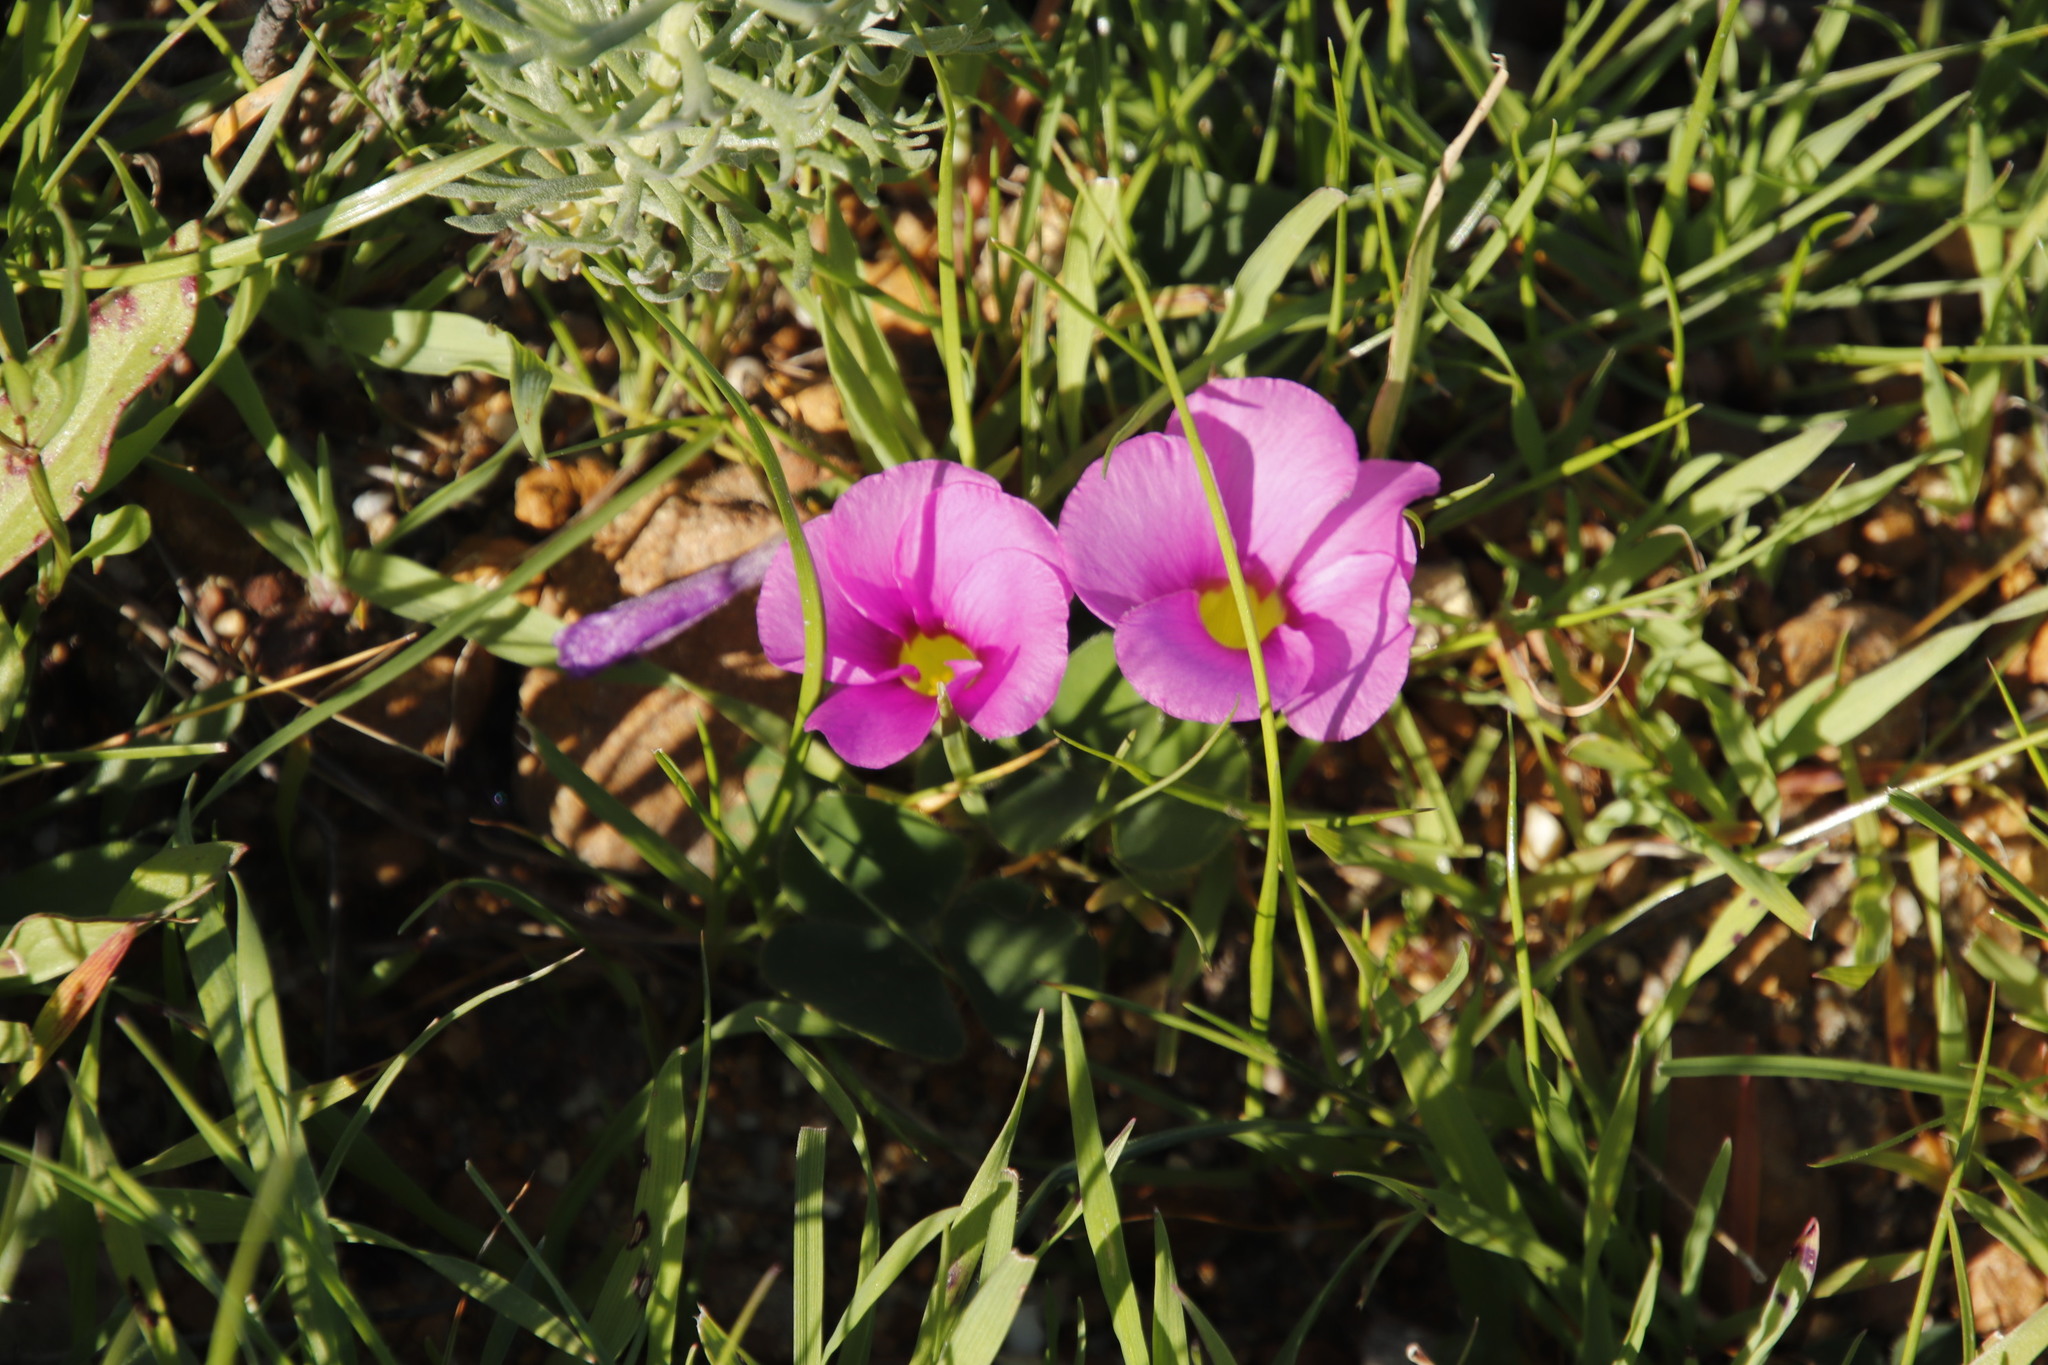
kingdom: Plantae
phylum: Tracheophyta
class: Magnoliopsida
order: Oxalidales
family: Oxalidaceae
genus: Oxalis
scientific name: Oxalis purpurea
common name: Purple woodsorrel
